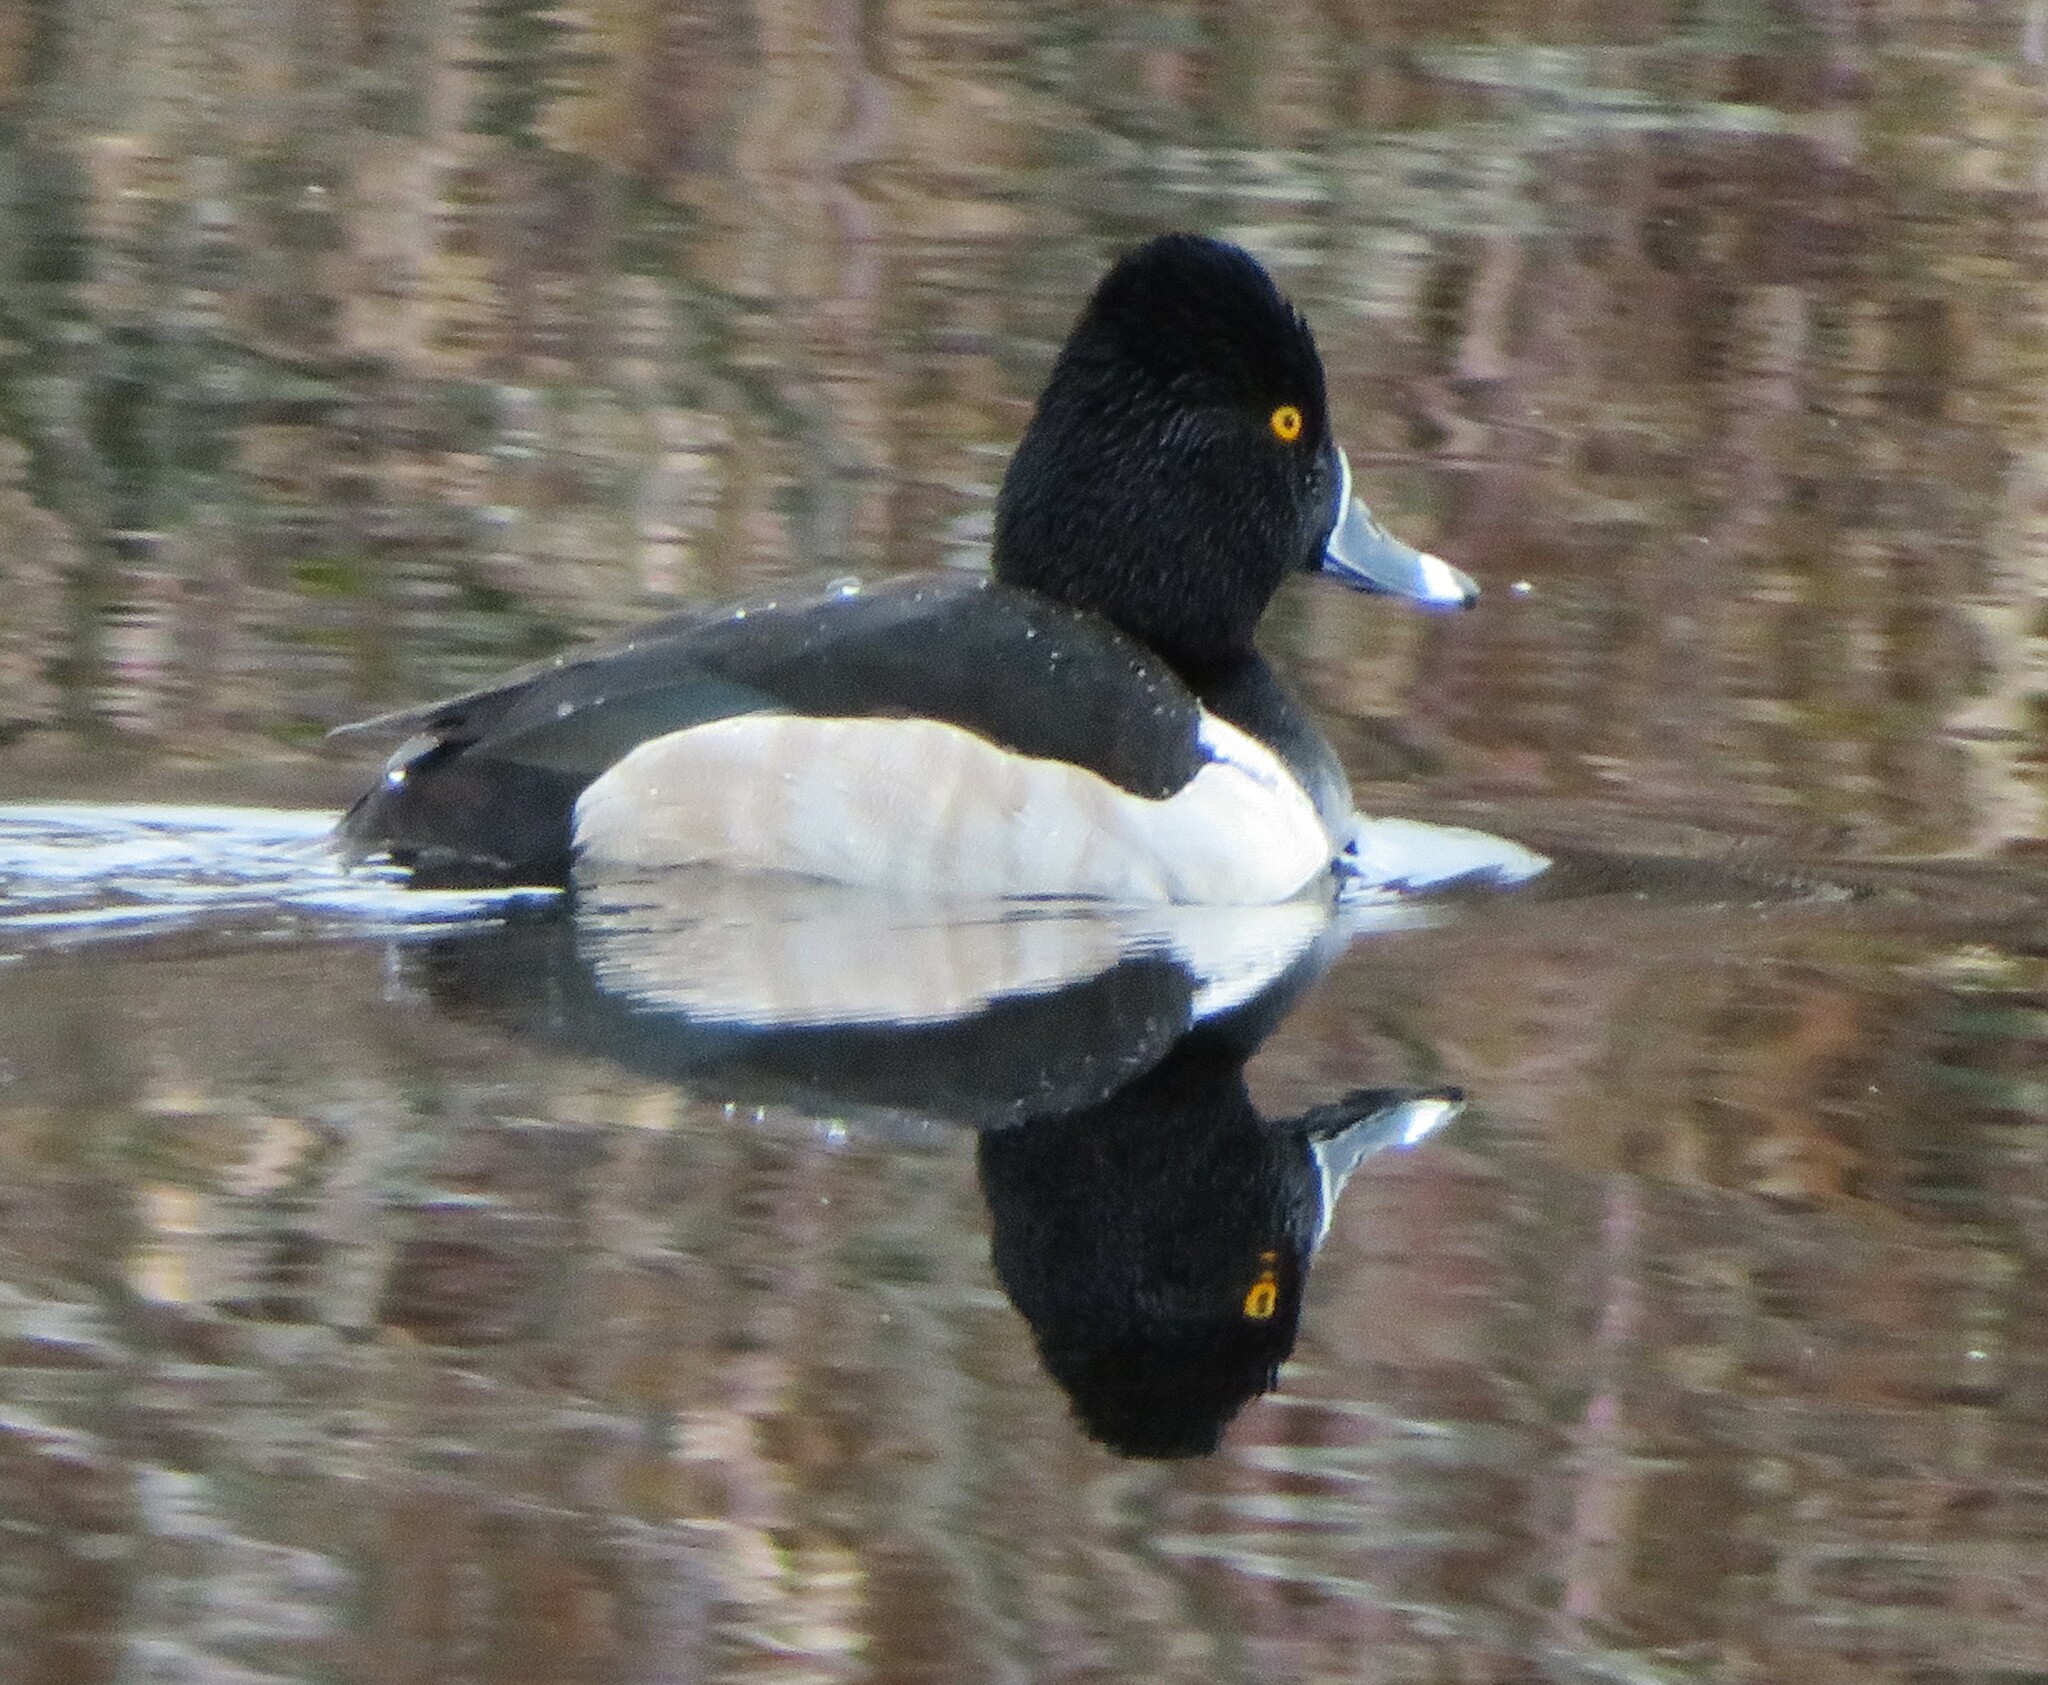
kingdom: Animalia
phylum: Chordata
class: Aves
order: Anseriformes
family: Anatidae
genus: Aythya
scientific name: Aythya collaris
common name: Ring-necked duck
